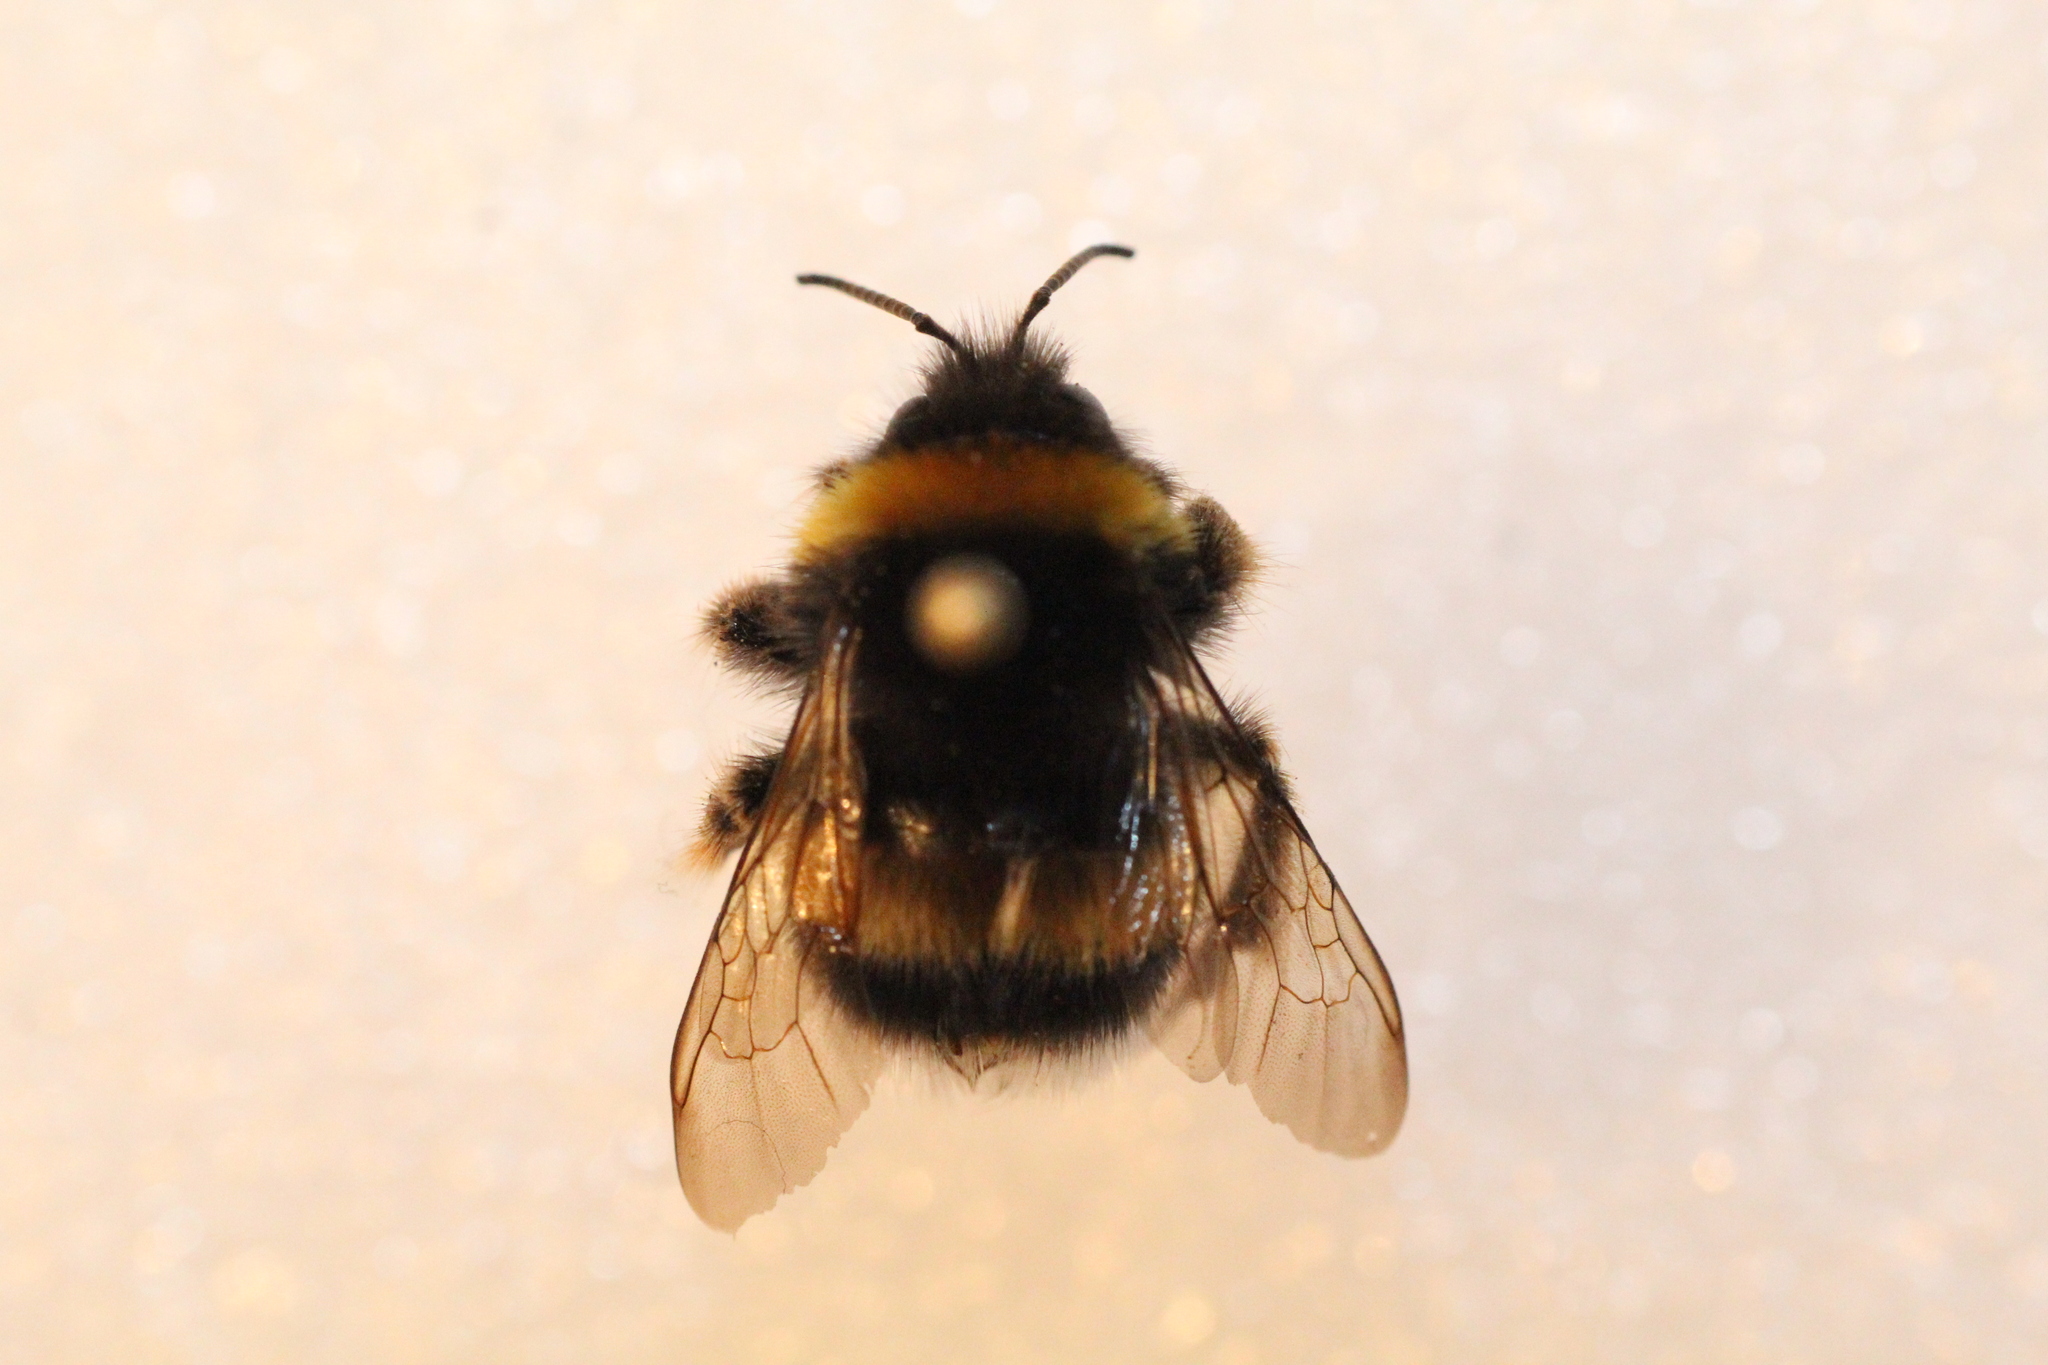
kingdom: Animalia
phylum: Arthropoda
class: Insecta
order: Hymenoptera
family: Apidae
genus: Bombus
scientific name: Bombus terrestris
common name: Buff-tailed bumblebee
